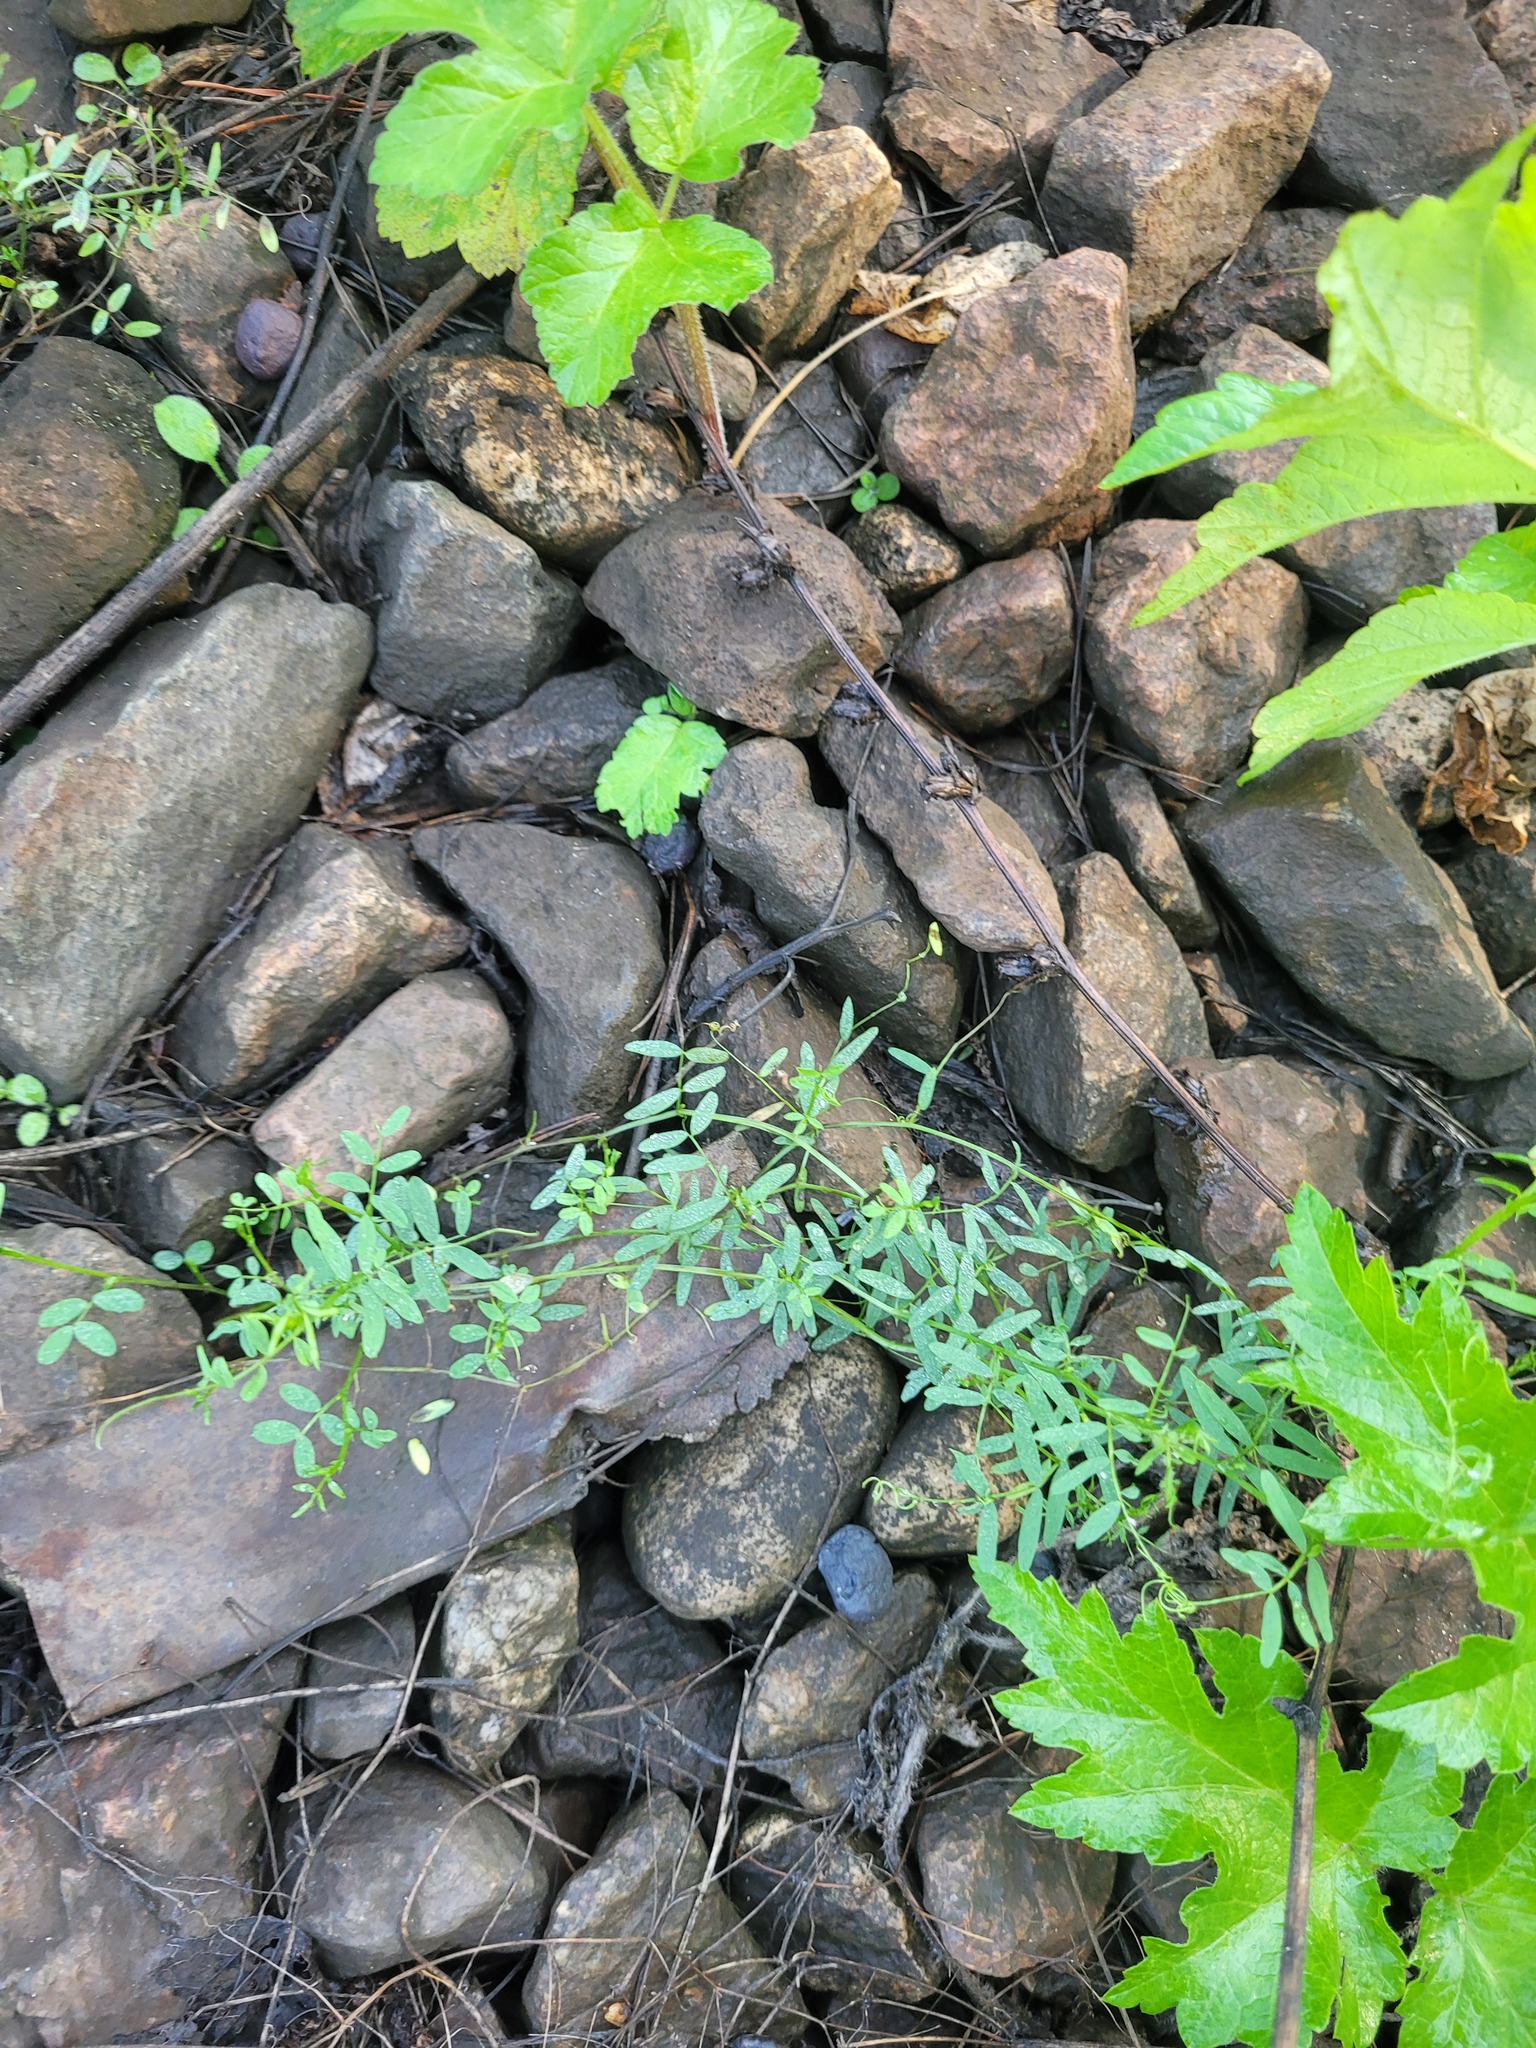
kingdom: Plantae
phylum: Tracheophyta
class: Magnoliopsida
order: Fabales
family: Fabaceae
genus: Vicia
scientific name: Vicia tetrasperma
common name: Smooth tare
